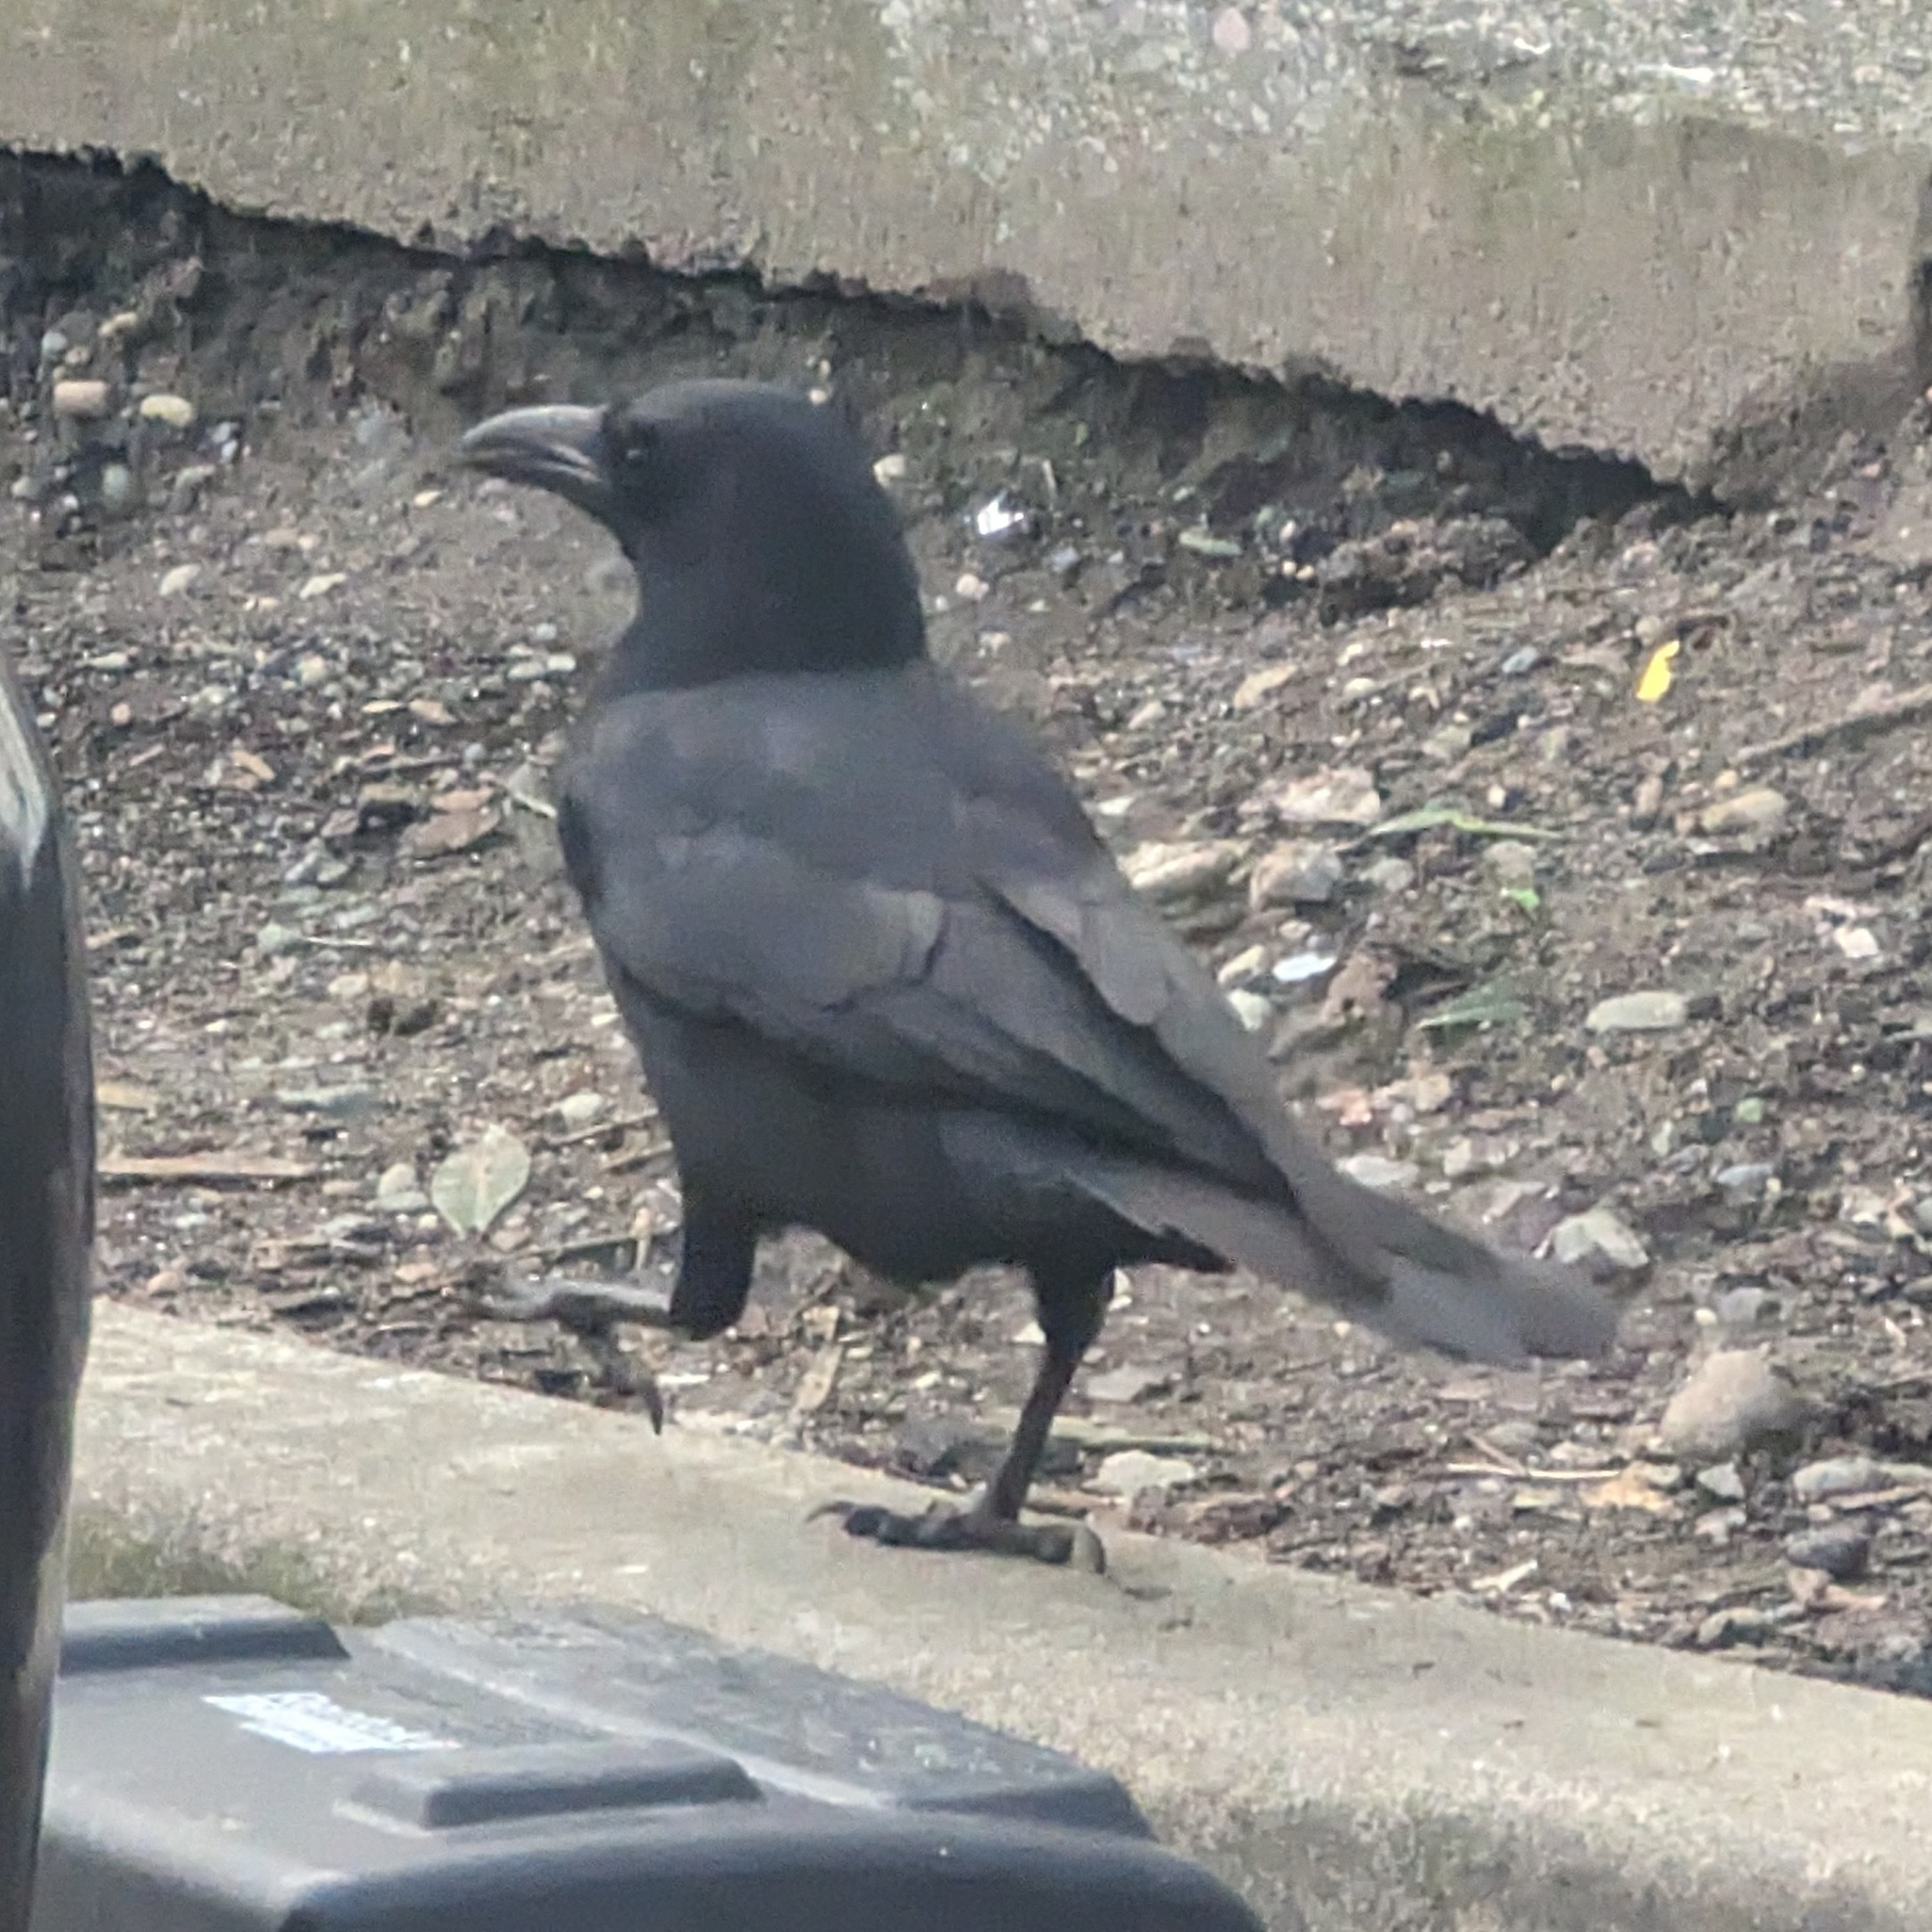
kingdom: Animalia
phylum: Chordata
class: Aves
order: Passeriformes
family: Corvidae
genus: Corvus
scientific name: Corvus brachyrhynchos
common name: American crow
